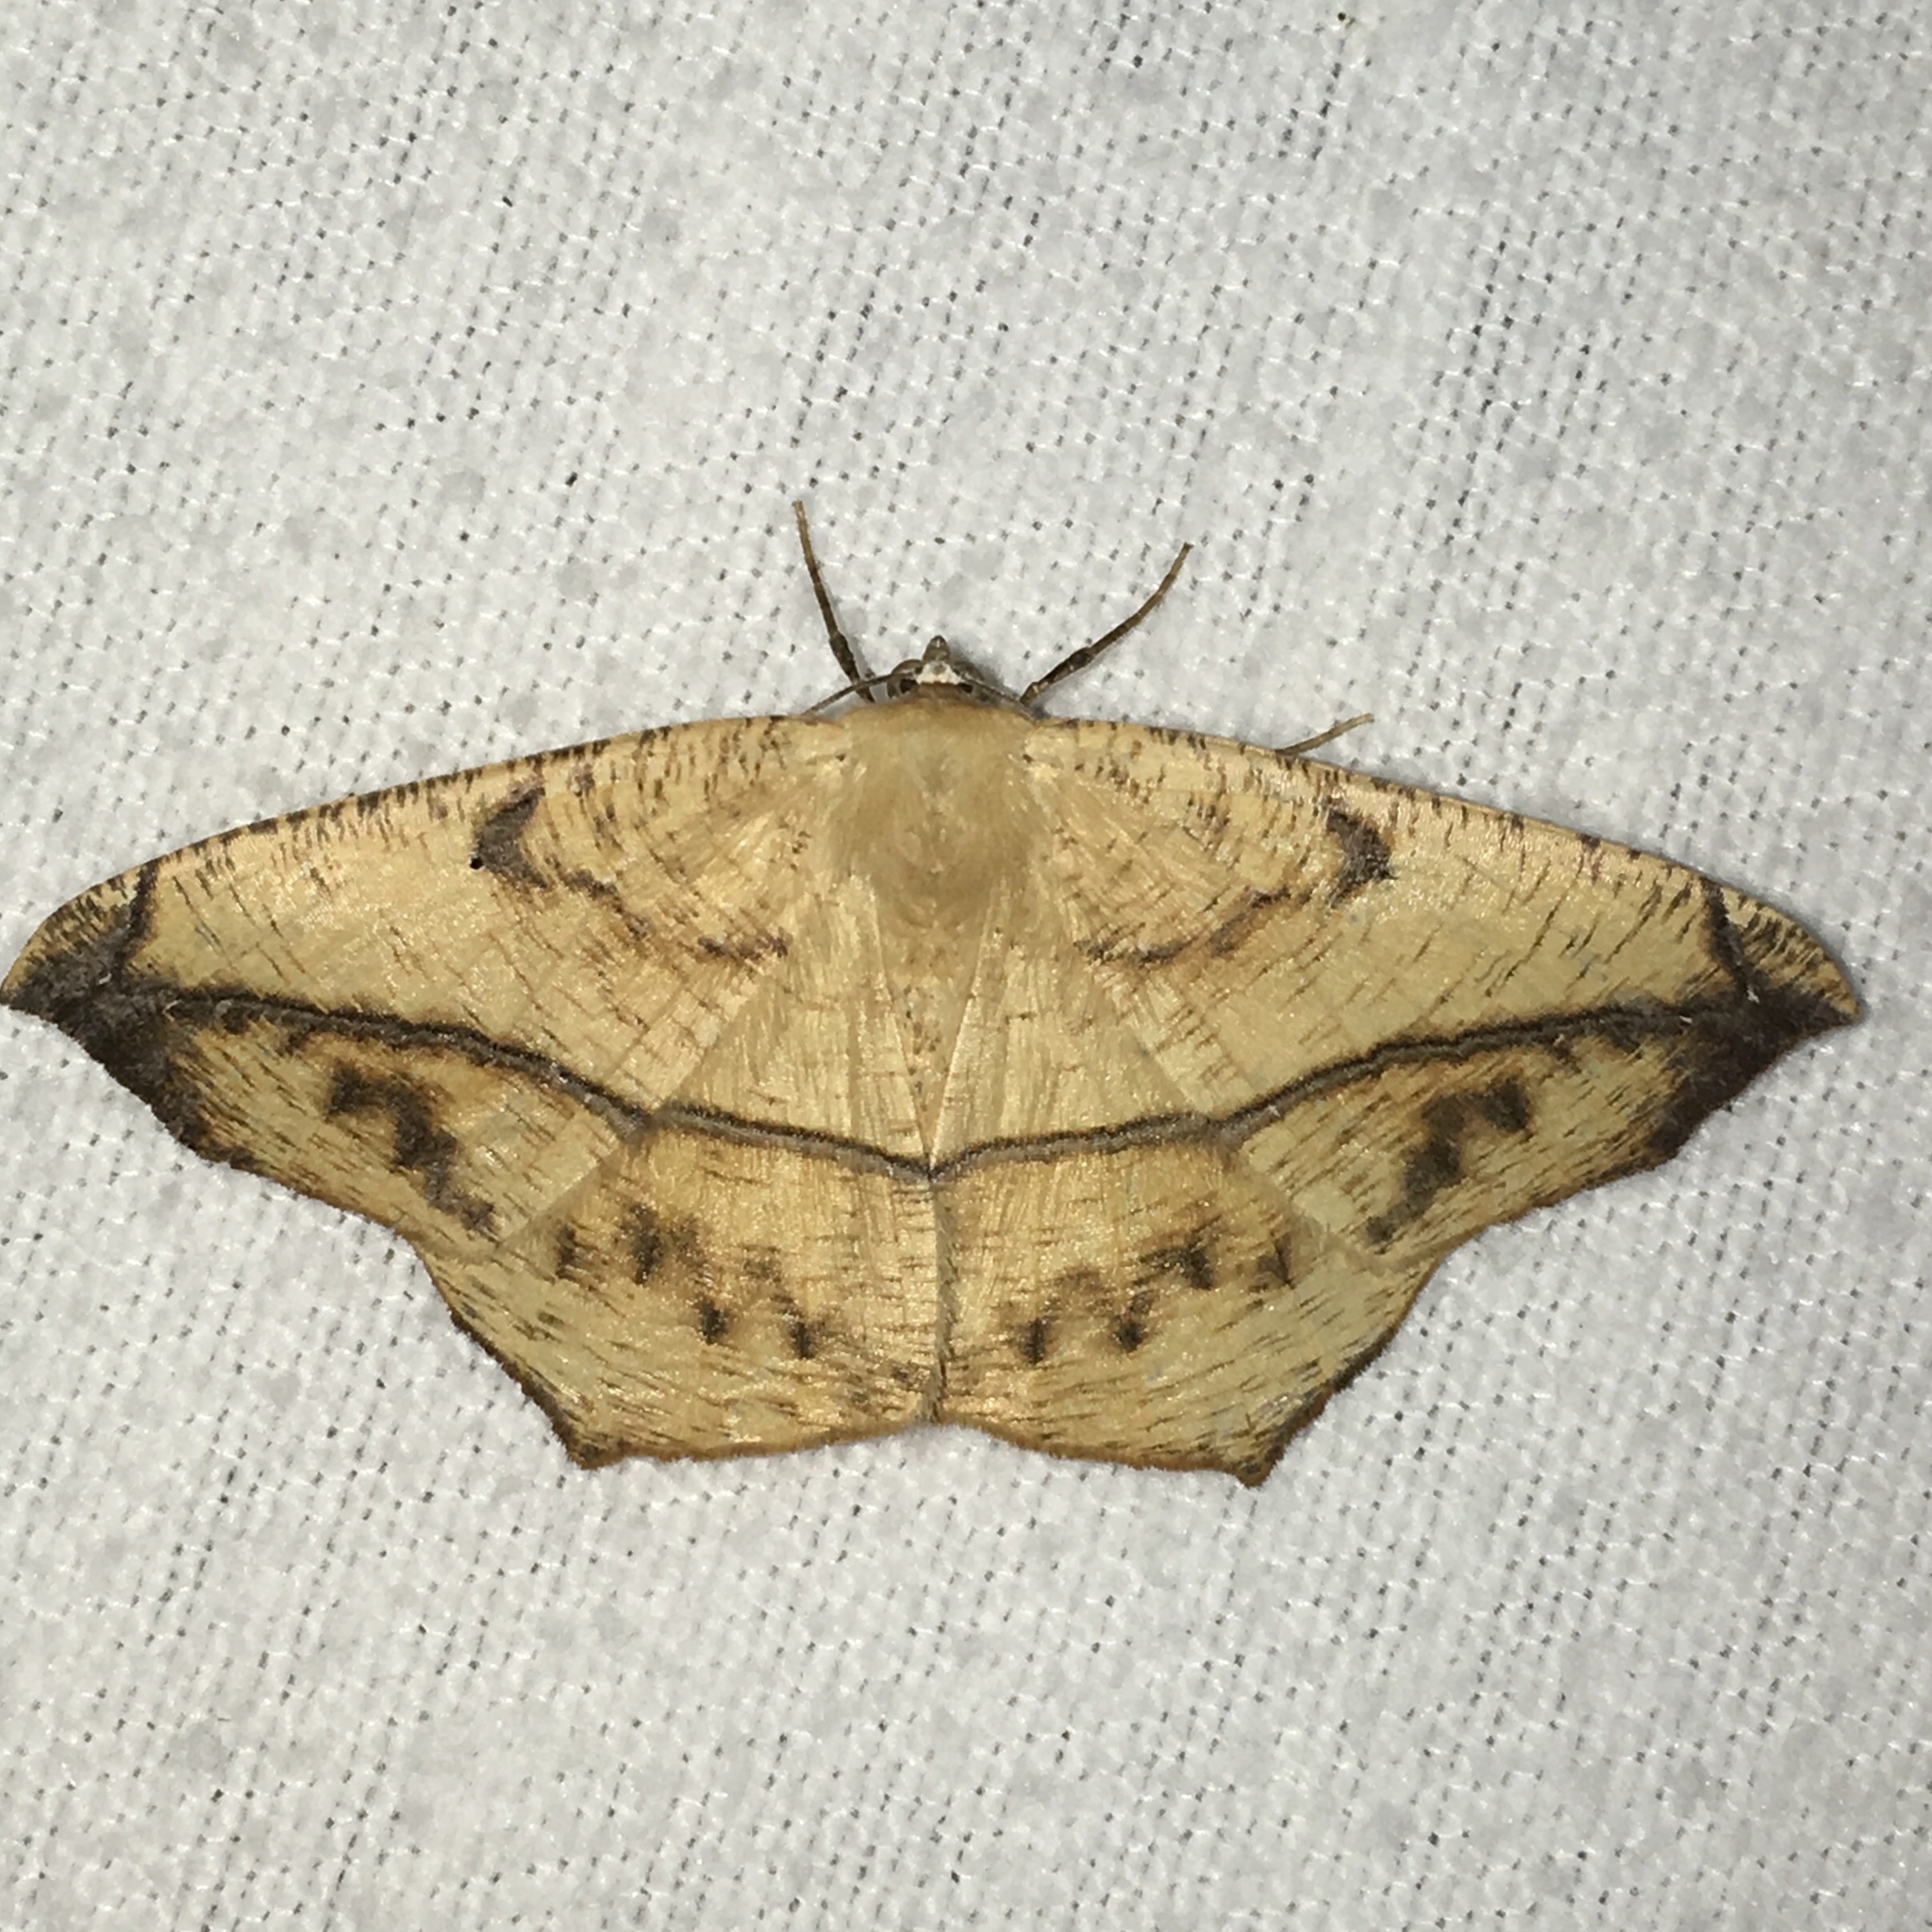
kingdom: Animalia
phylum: Arthropoda
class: Insecta
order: Lepidoptera
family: Geometridae
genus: Prochoerodes
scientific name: Prochoerodes lineola
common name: Large maple spanworm
